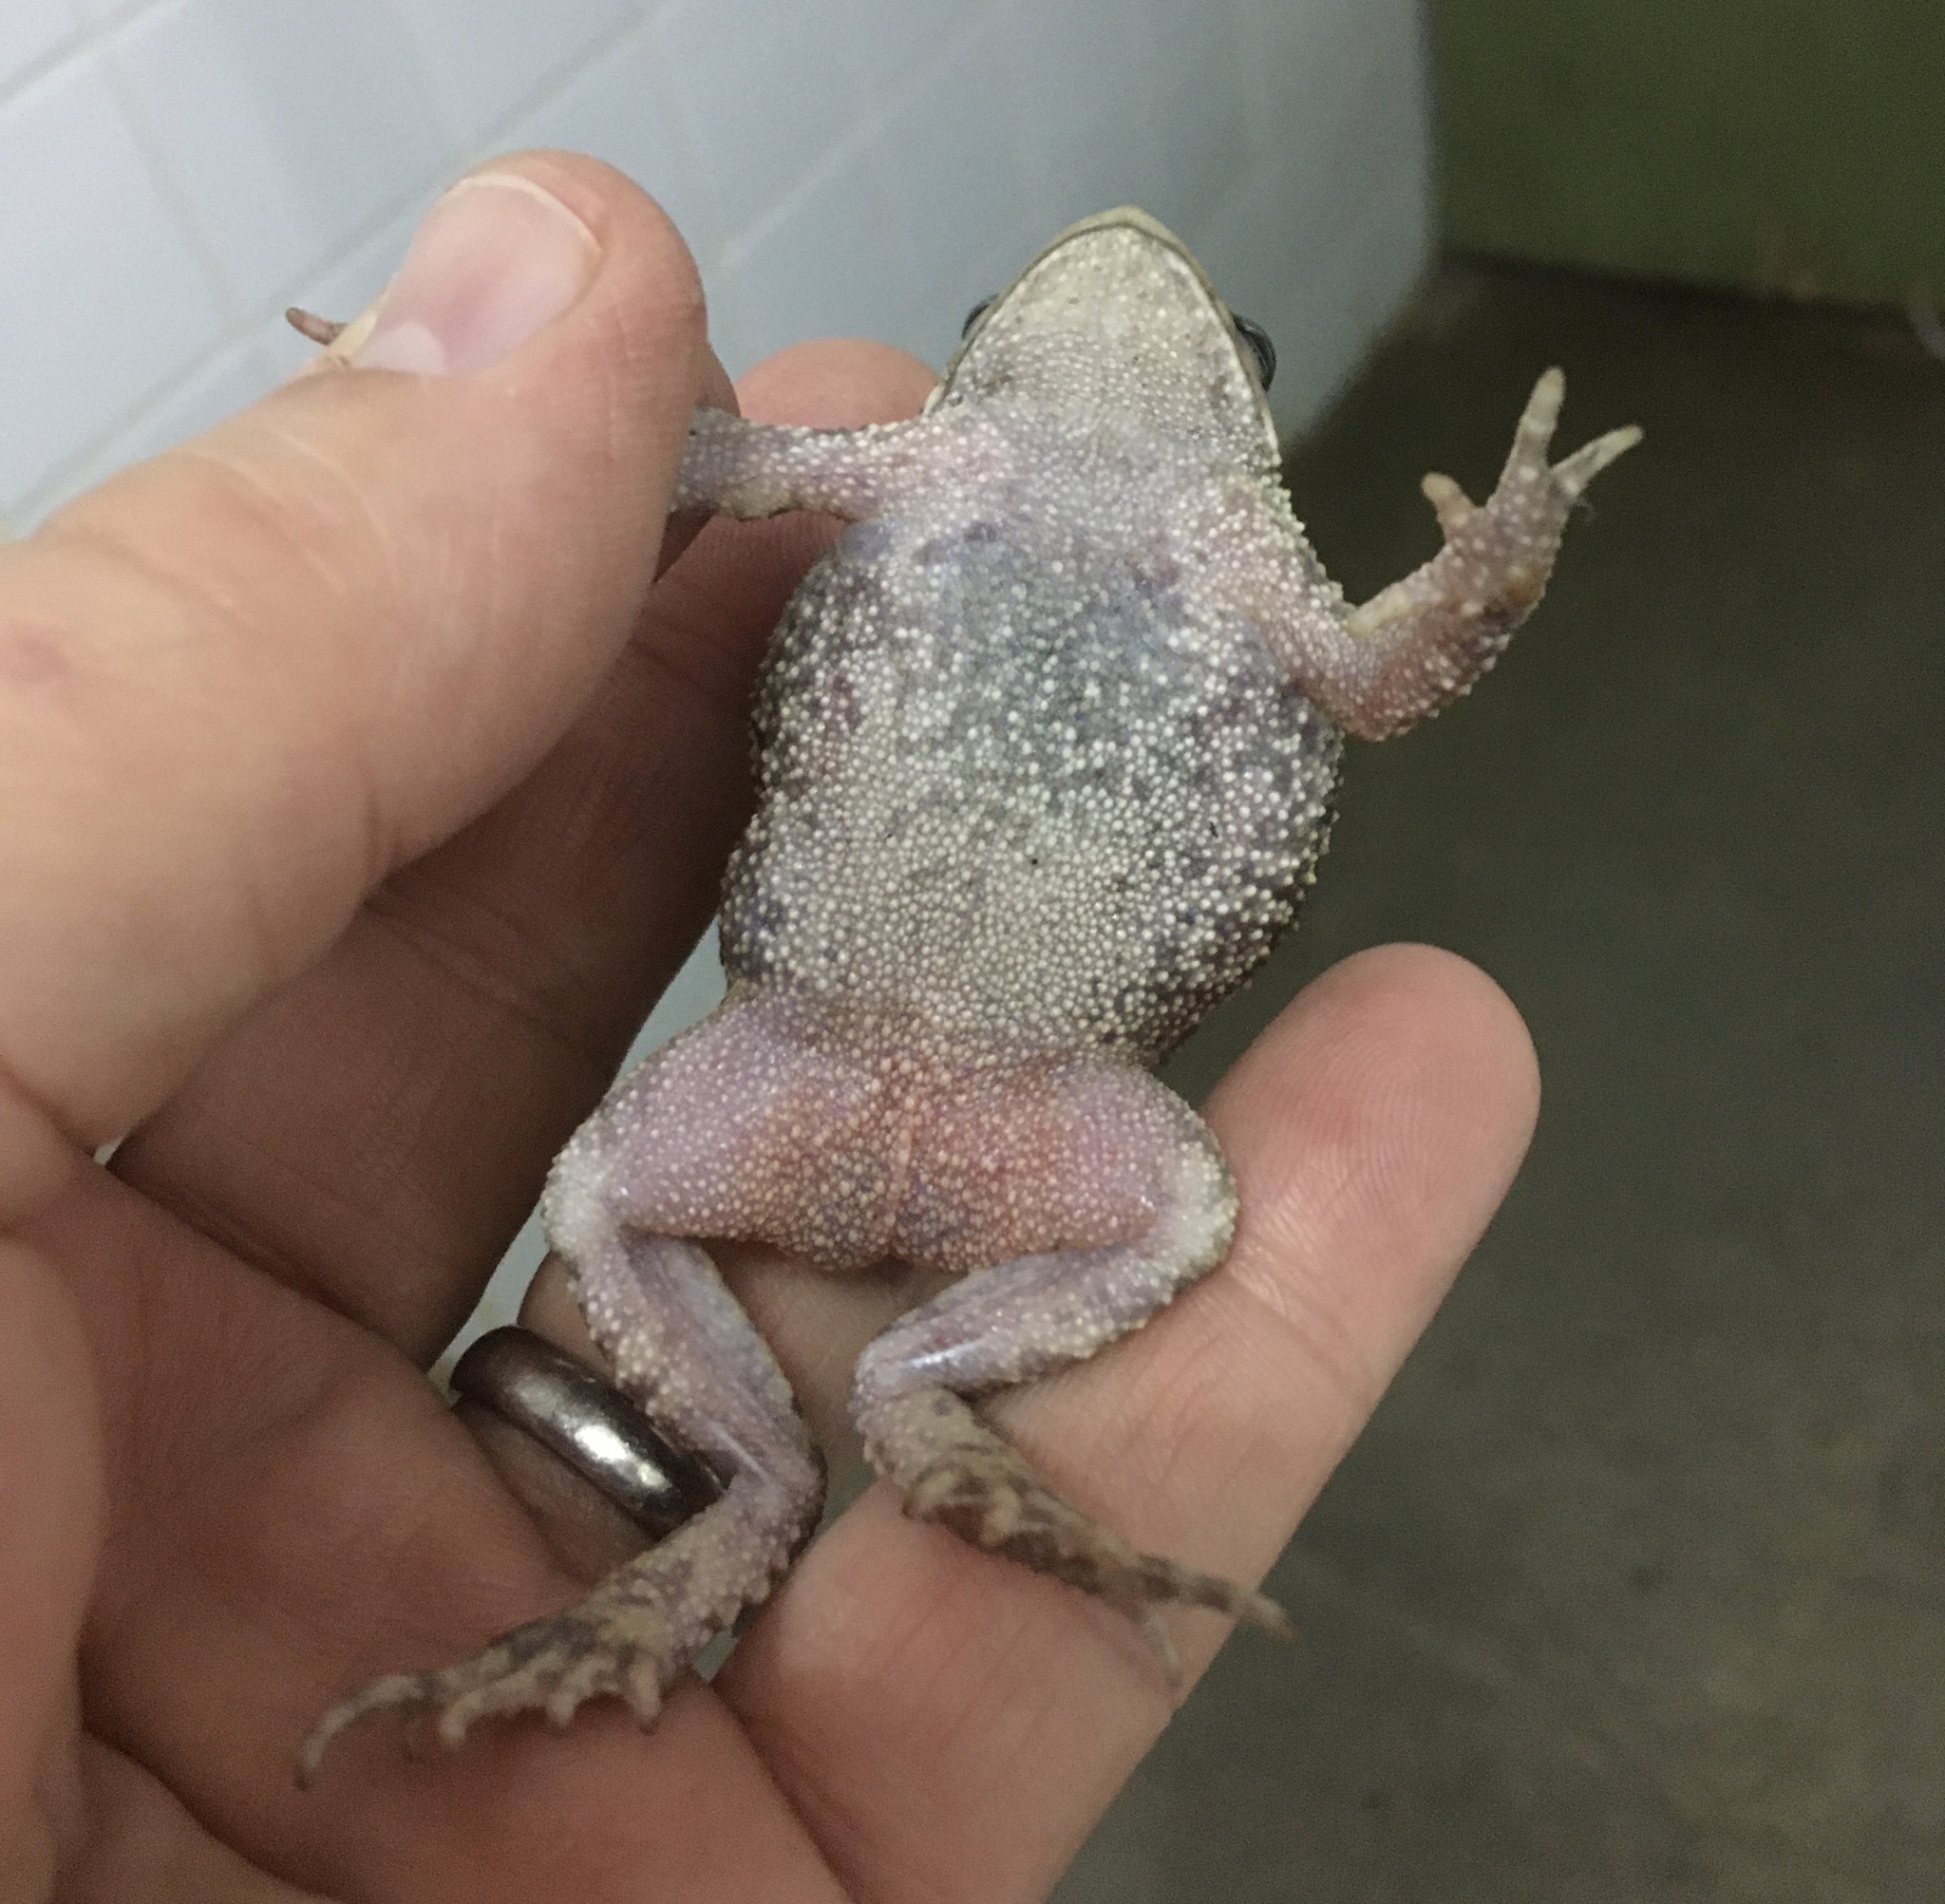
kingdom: Animalia
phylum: Chordata
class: Amphibia
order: Anura
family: Bufonidae
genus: Incilius
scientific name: Incilius luetkenii
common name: Yellow toad
